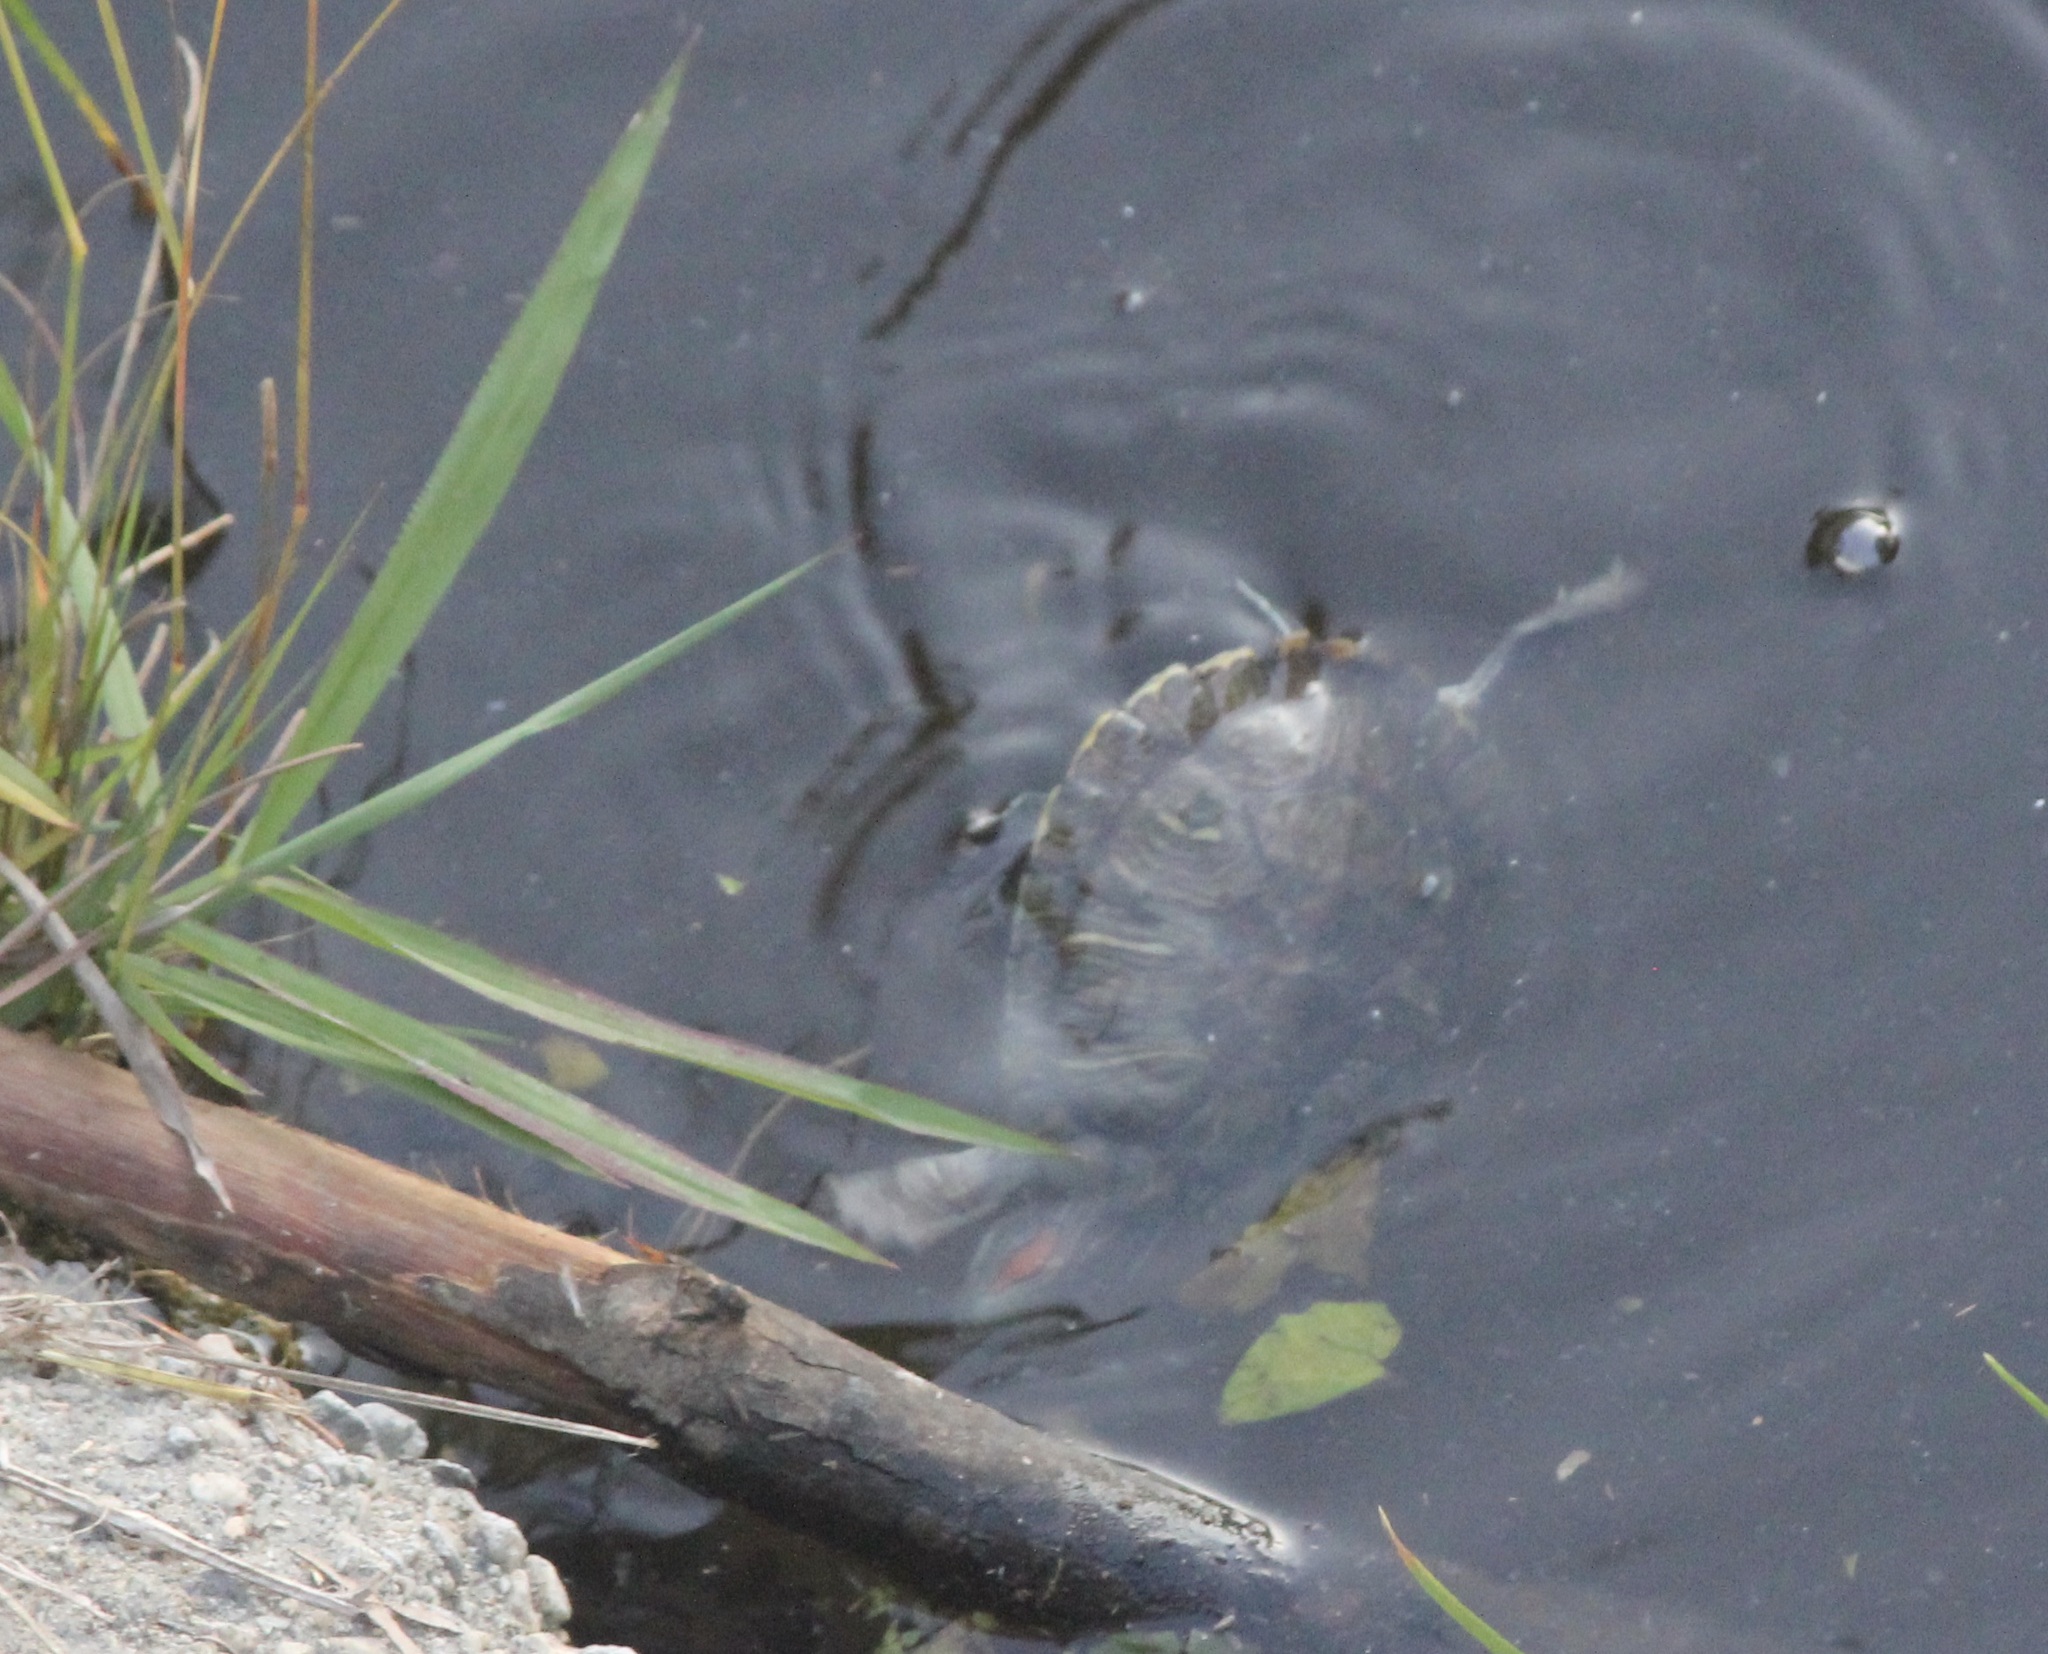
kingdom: Animalia
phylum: Chordata
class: Testudines
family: Emydidae
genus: Trachemys
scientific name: Trachemys scripta
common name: Slider
